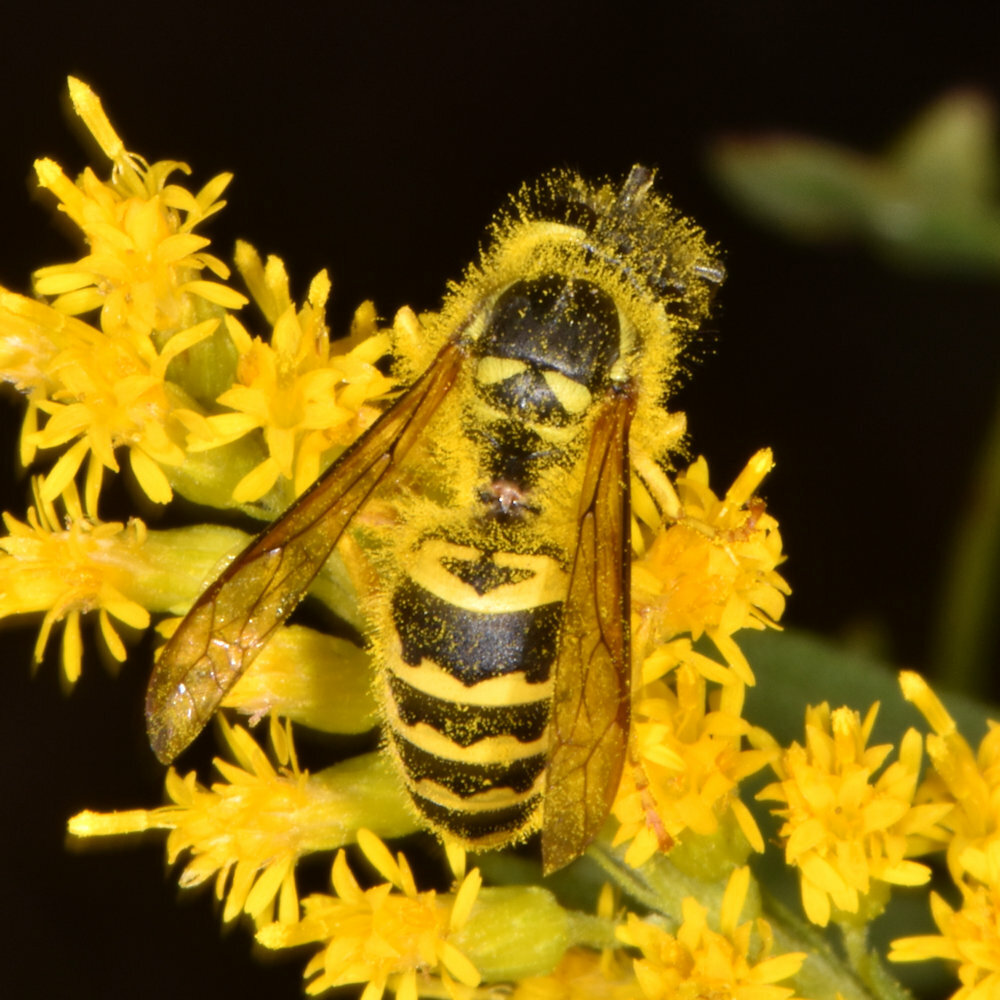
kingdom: Animalia
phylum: Arthropoda
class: Insecta
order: Hymenoptera
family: Vespidae
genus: Vespula
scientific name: Vespula maculifrons
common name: Eastern yellowjacket
